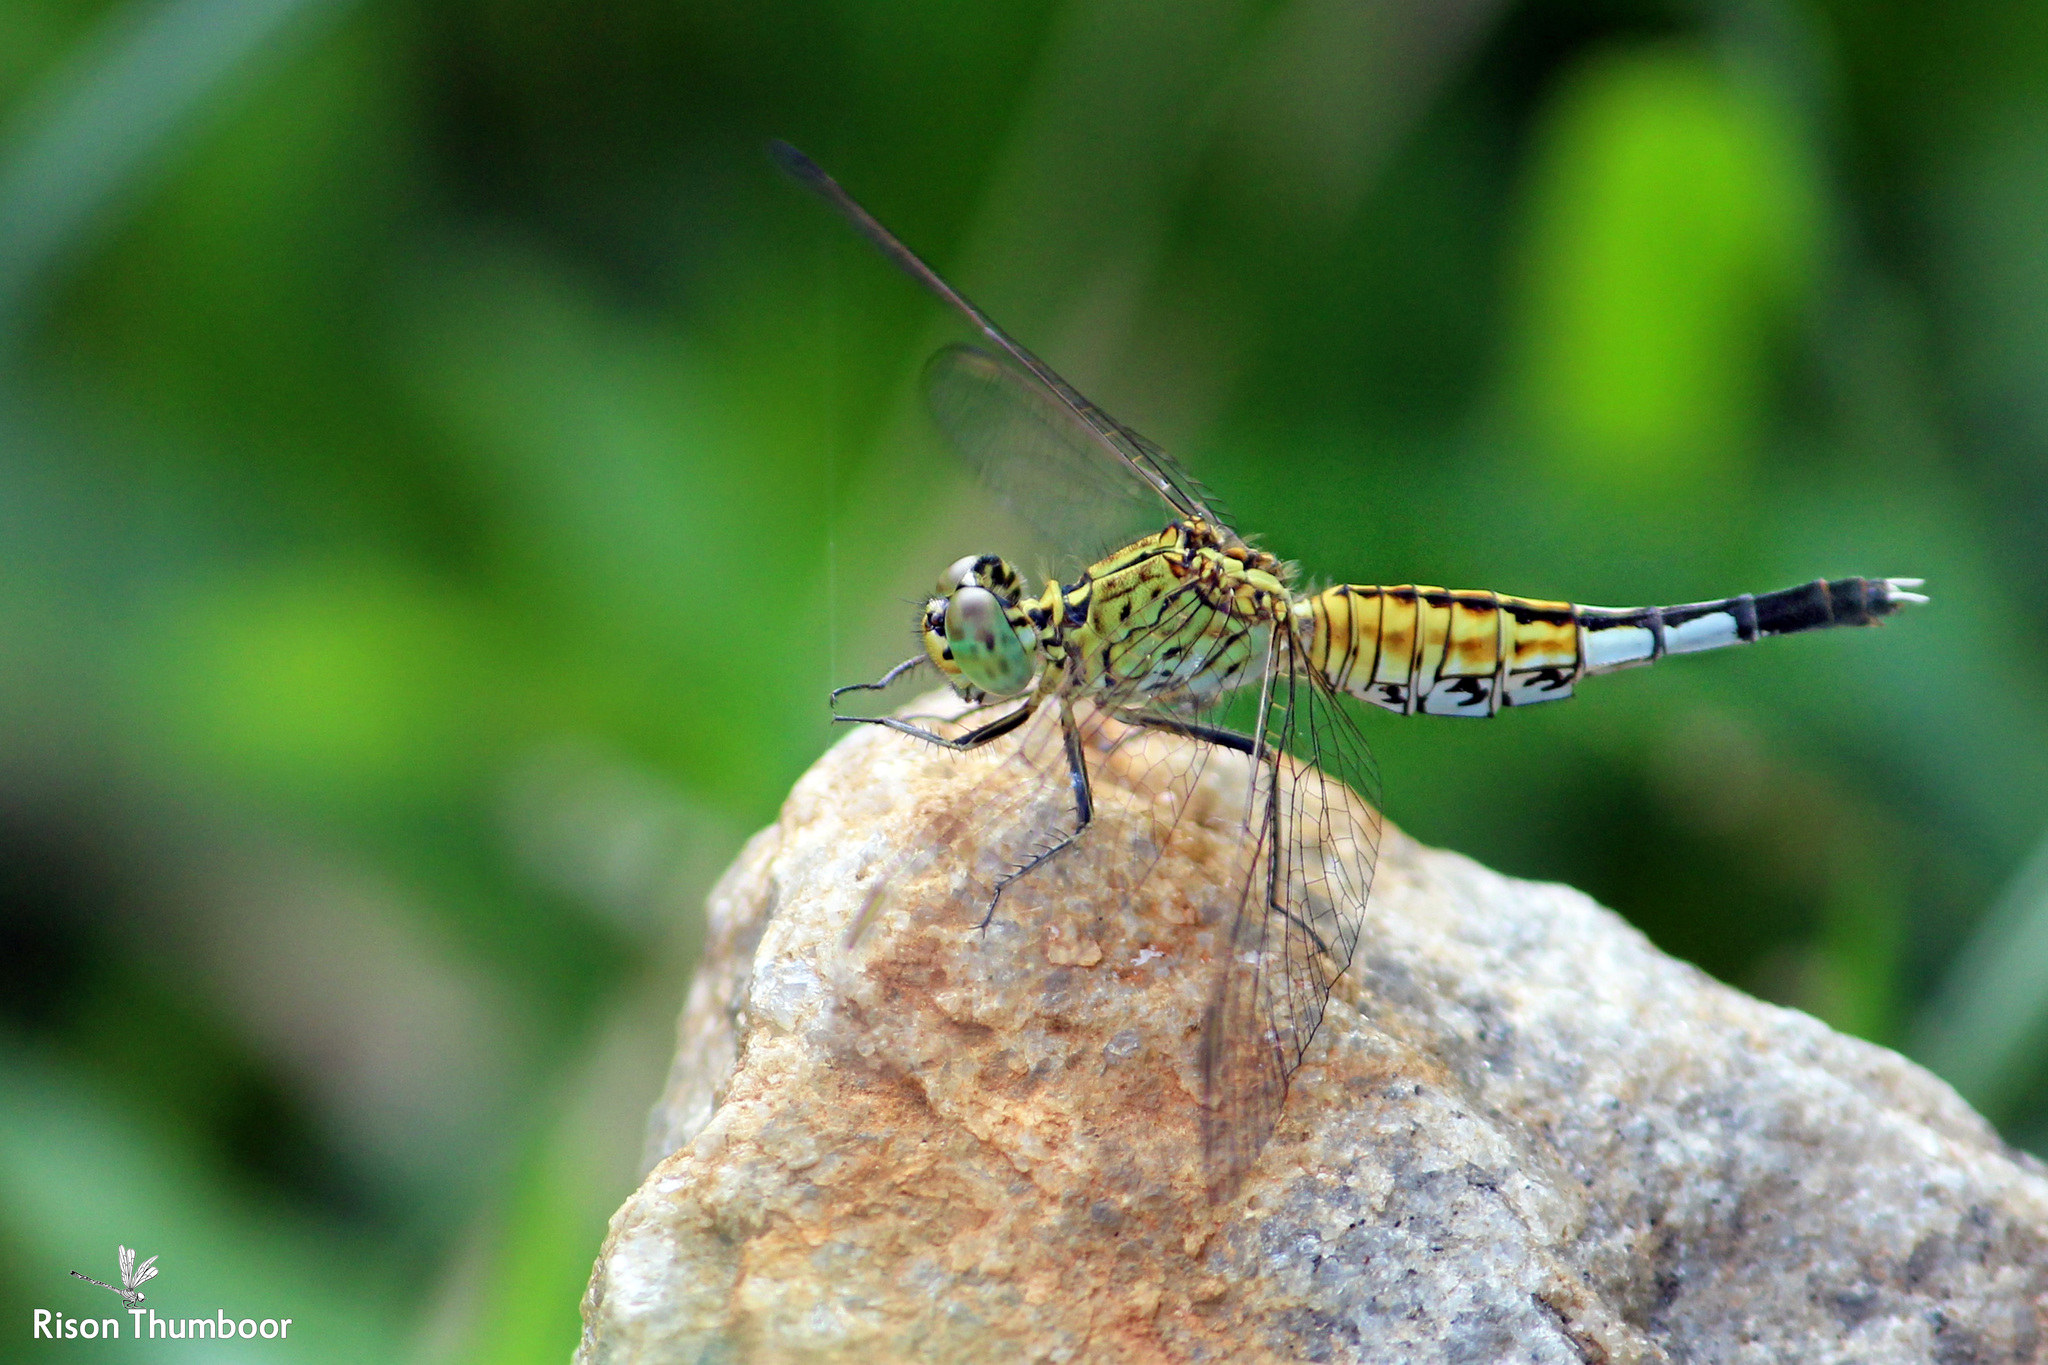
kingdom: Animalia
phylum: Arthropoda
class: Insecta
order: Odonata
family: Libellulidae
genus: Acisoma
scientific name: Acisoma panorpoides
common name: Asian pintail
